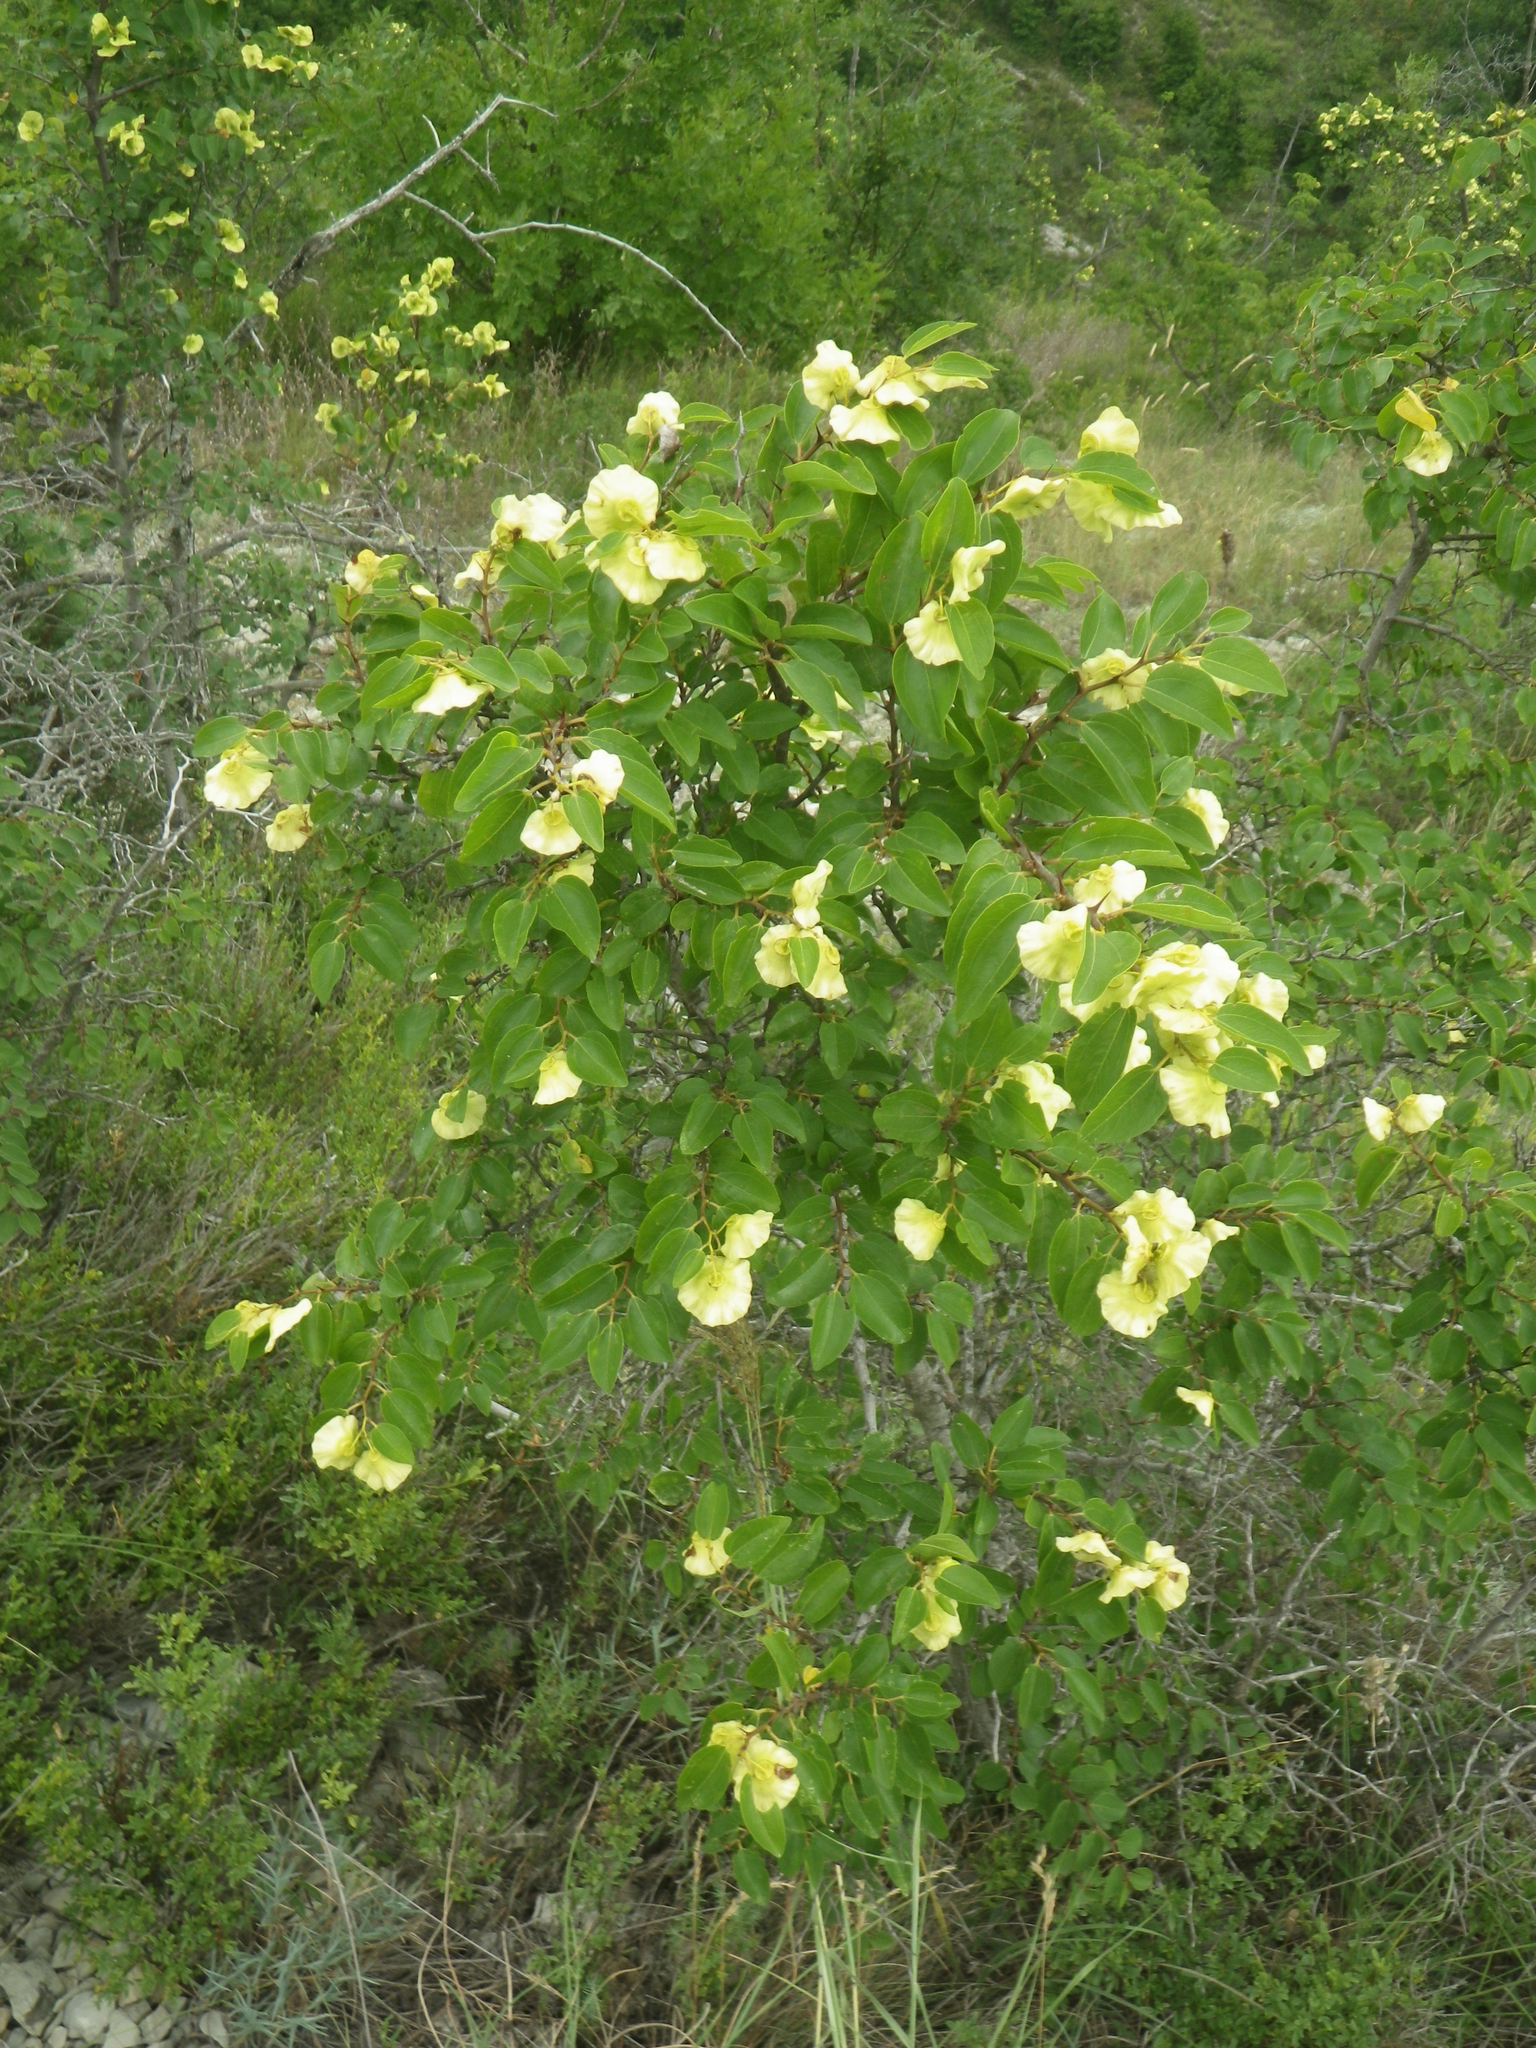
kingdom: Plantae
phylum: Tracheophyta
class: Magnoliopsida
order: Rosales
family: Rhamnaceae
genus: Paliurus
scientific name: Paliurus spina-christi
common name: Jeruselem thorn
